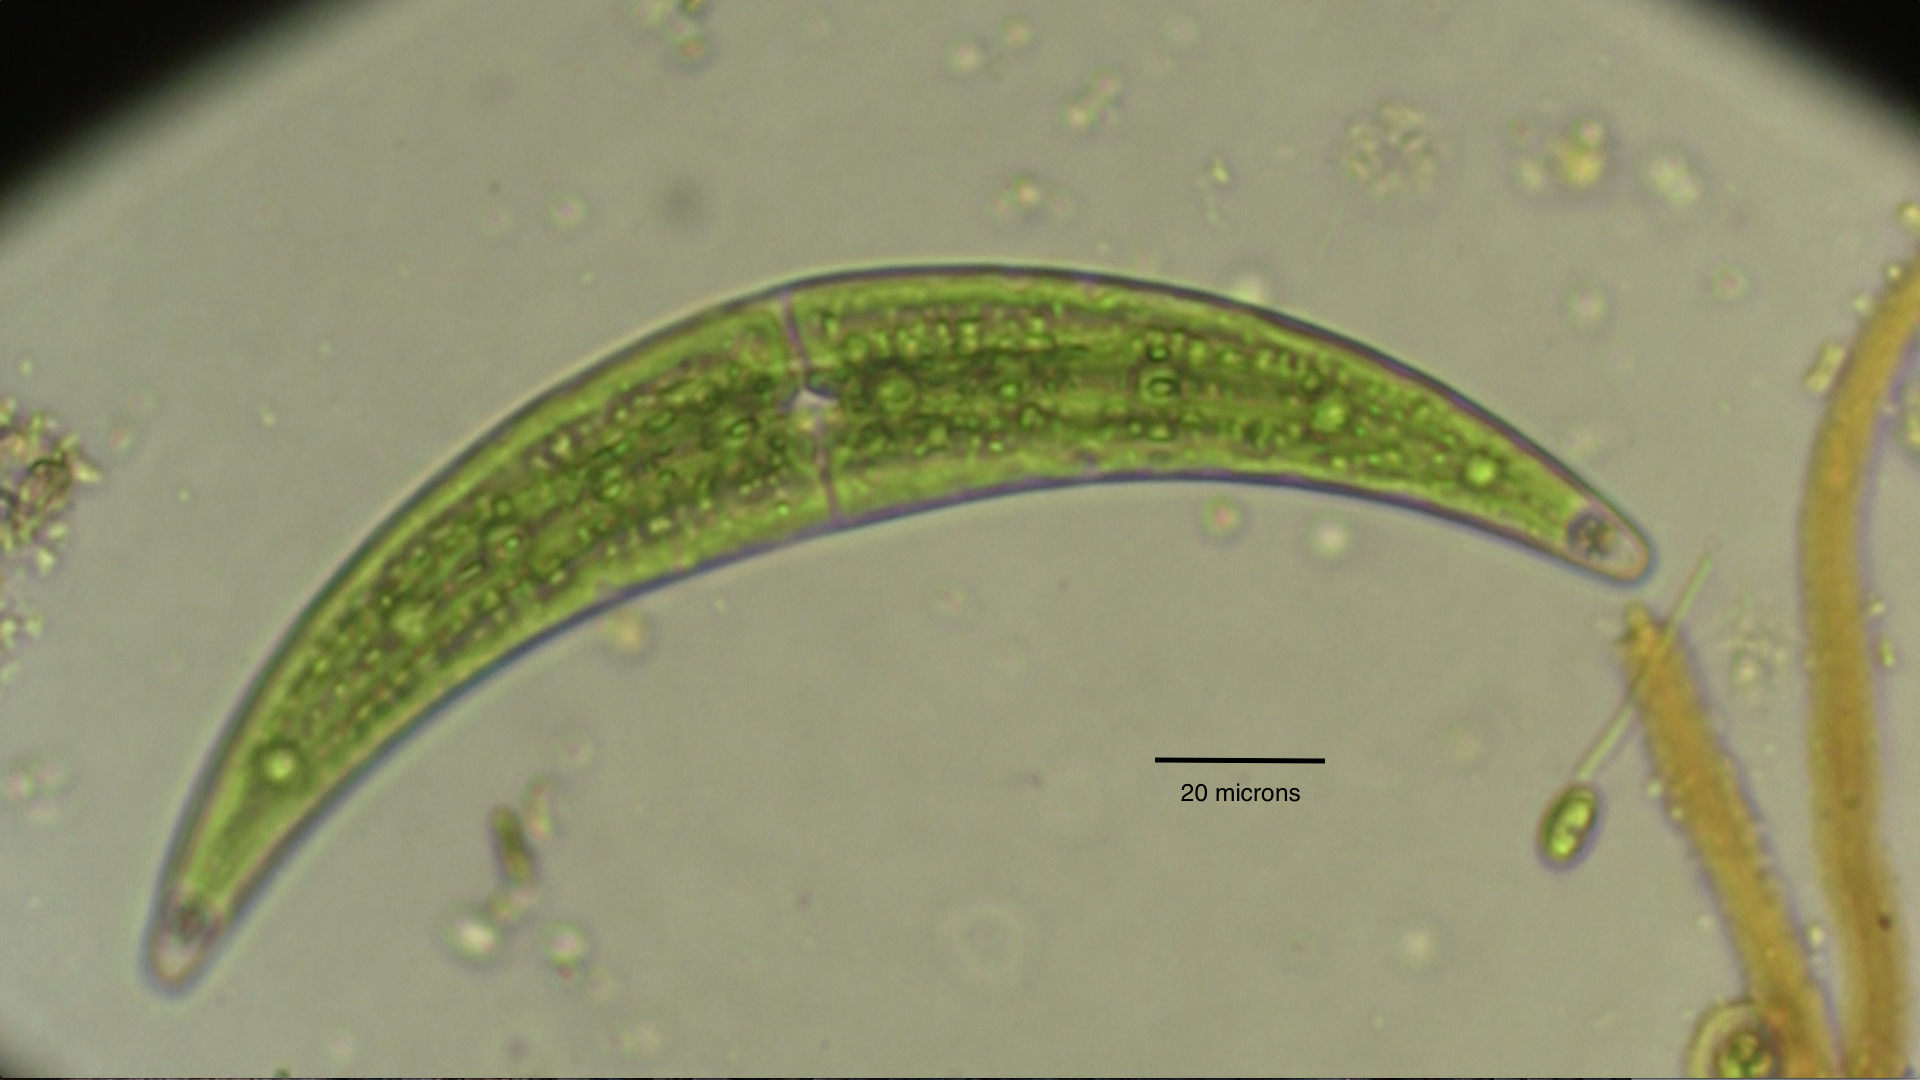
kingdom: Plantae
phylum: Charophyta
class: Zygnematophyceae
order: Zygnematales
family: Closteriaceae
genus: Closterium
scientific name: Closterium moniliferum
